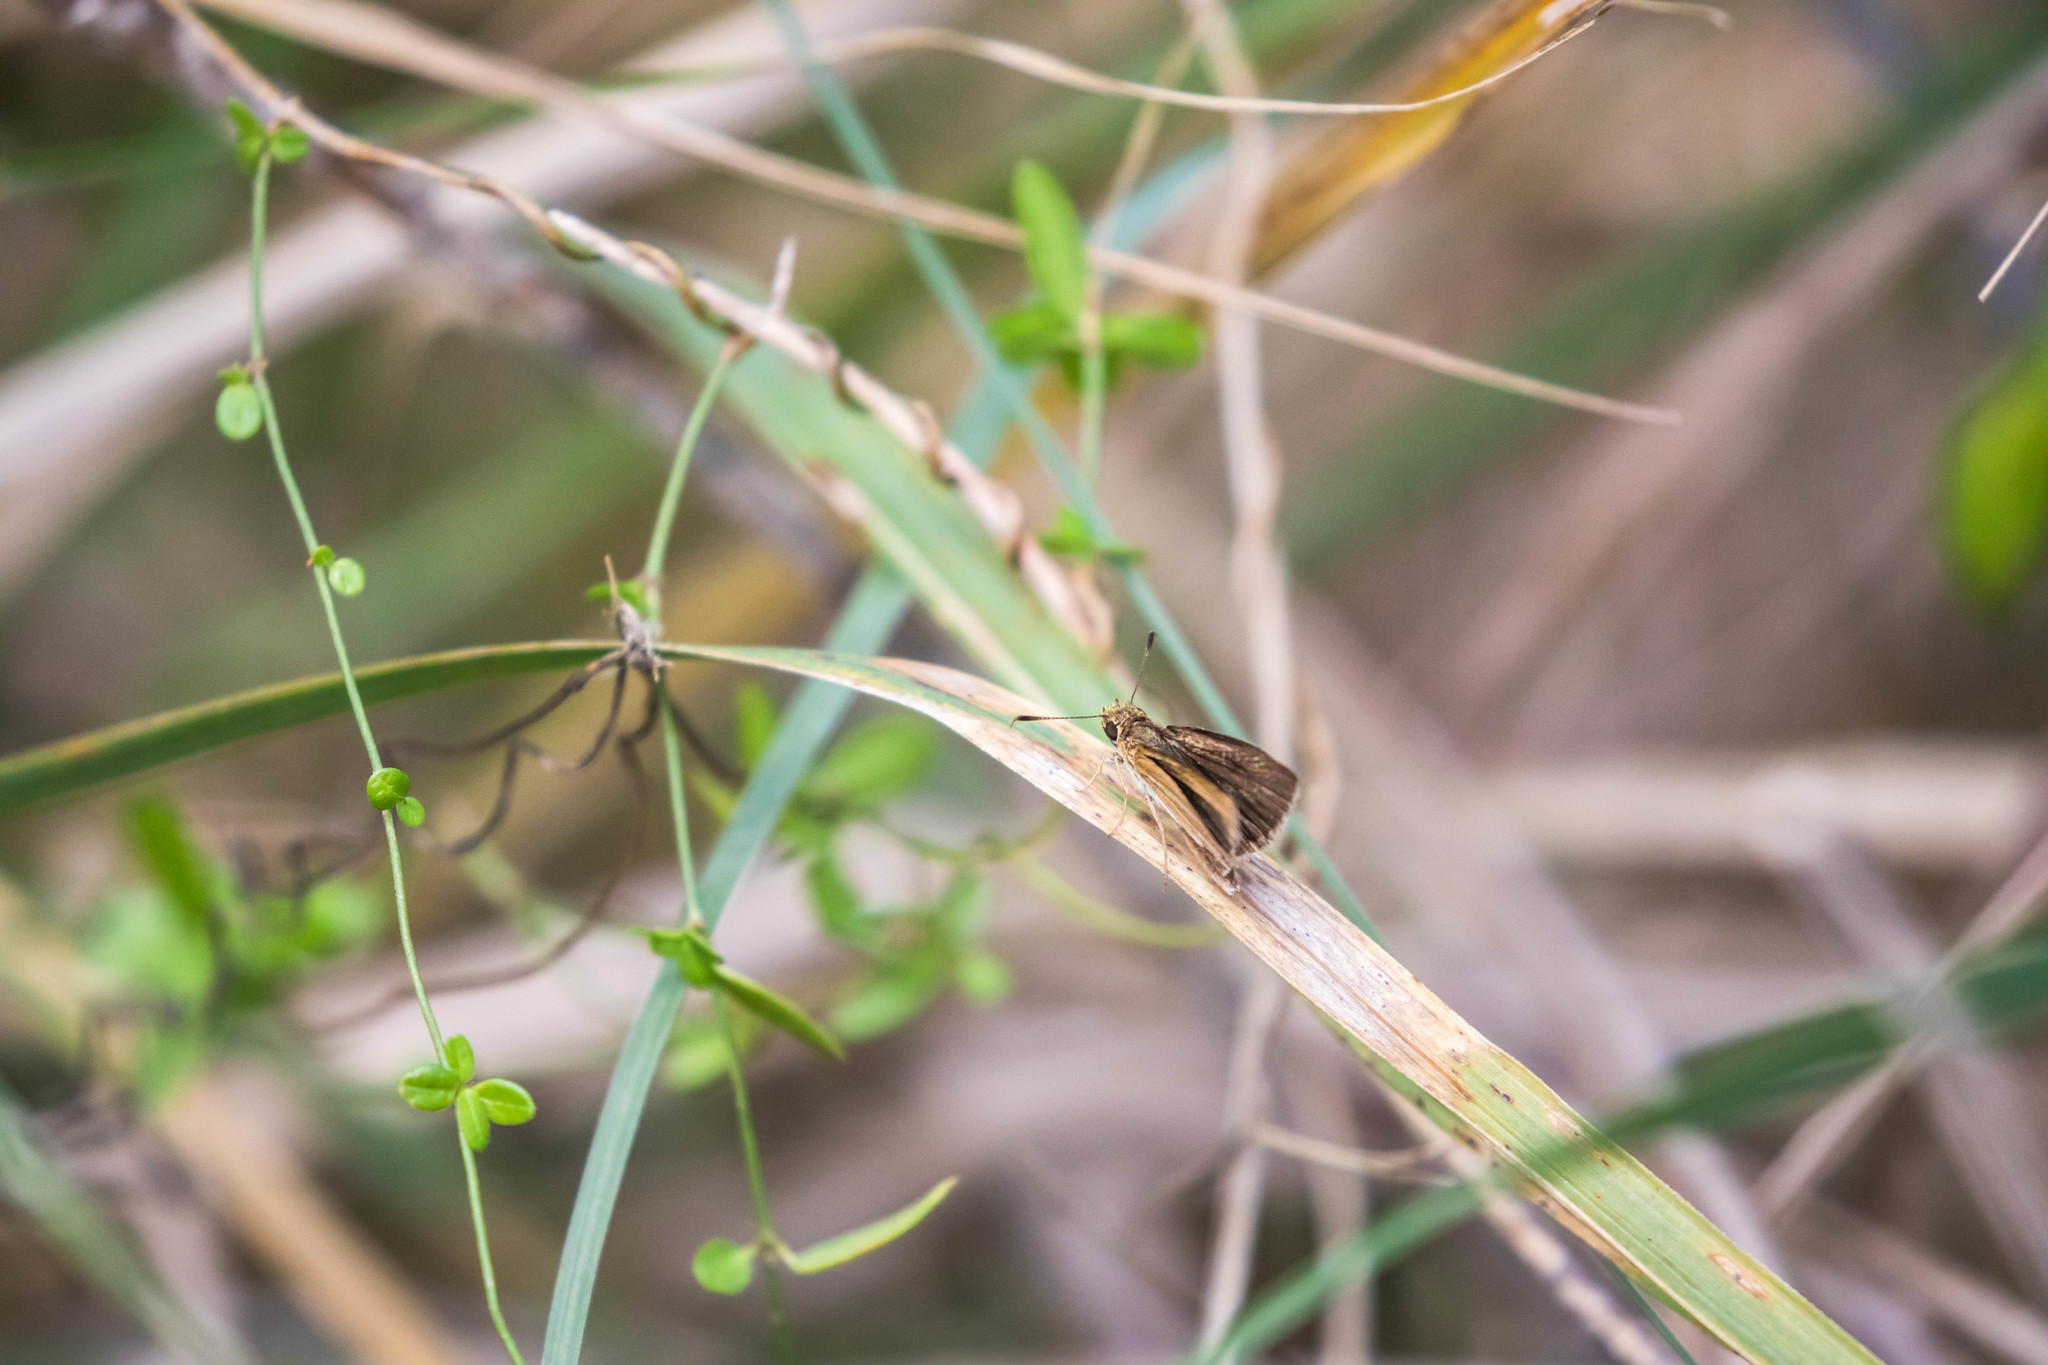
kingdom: Animalia
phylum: Arthropoda
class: Insecta
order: Lepidoptera
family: Hesperiidae
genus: Nastra
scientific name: Nastra perigenes
